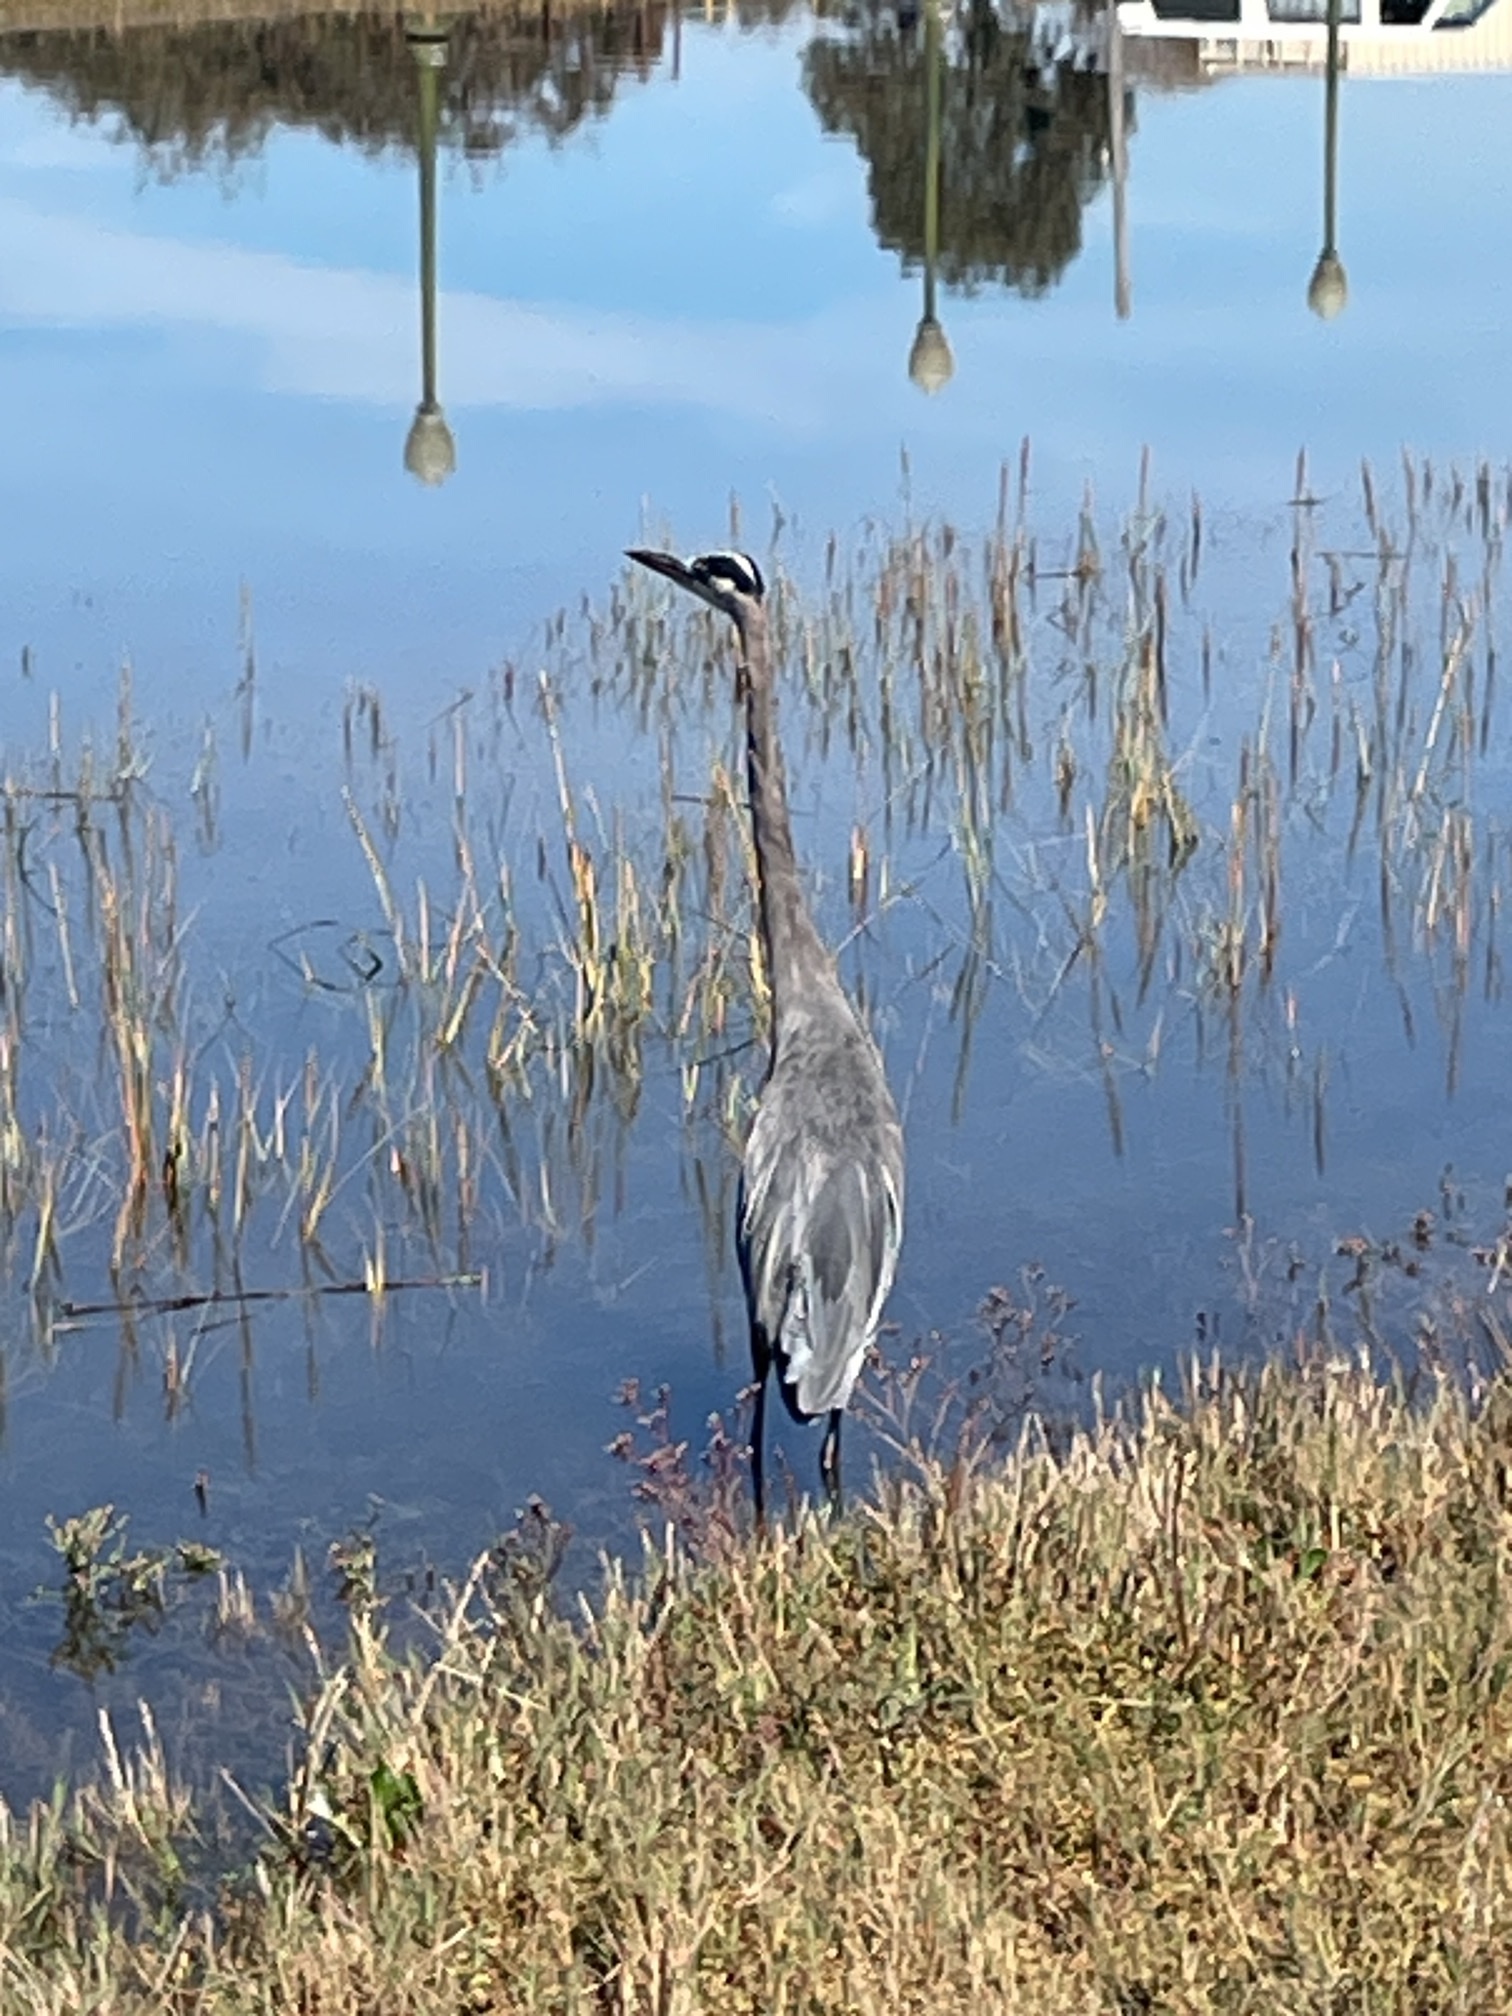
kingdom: Animalia
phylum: Chordata
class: Aves
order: Pelecaniformes
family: Ardeidae
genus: Ardea
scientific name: Ardea herodias
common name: Great blue heron
